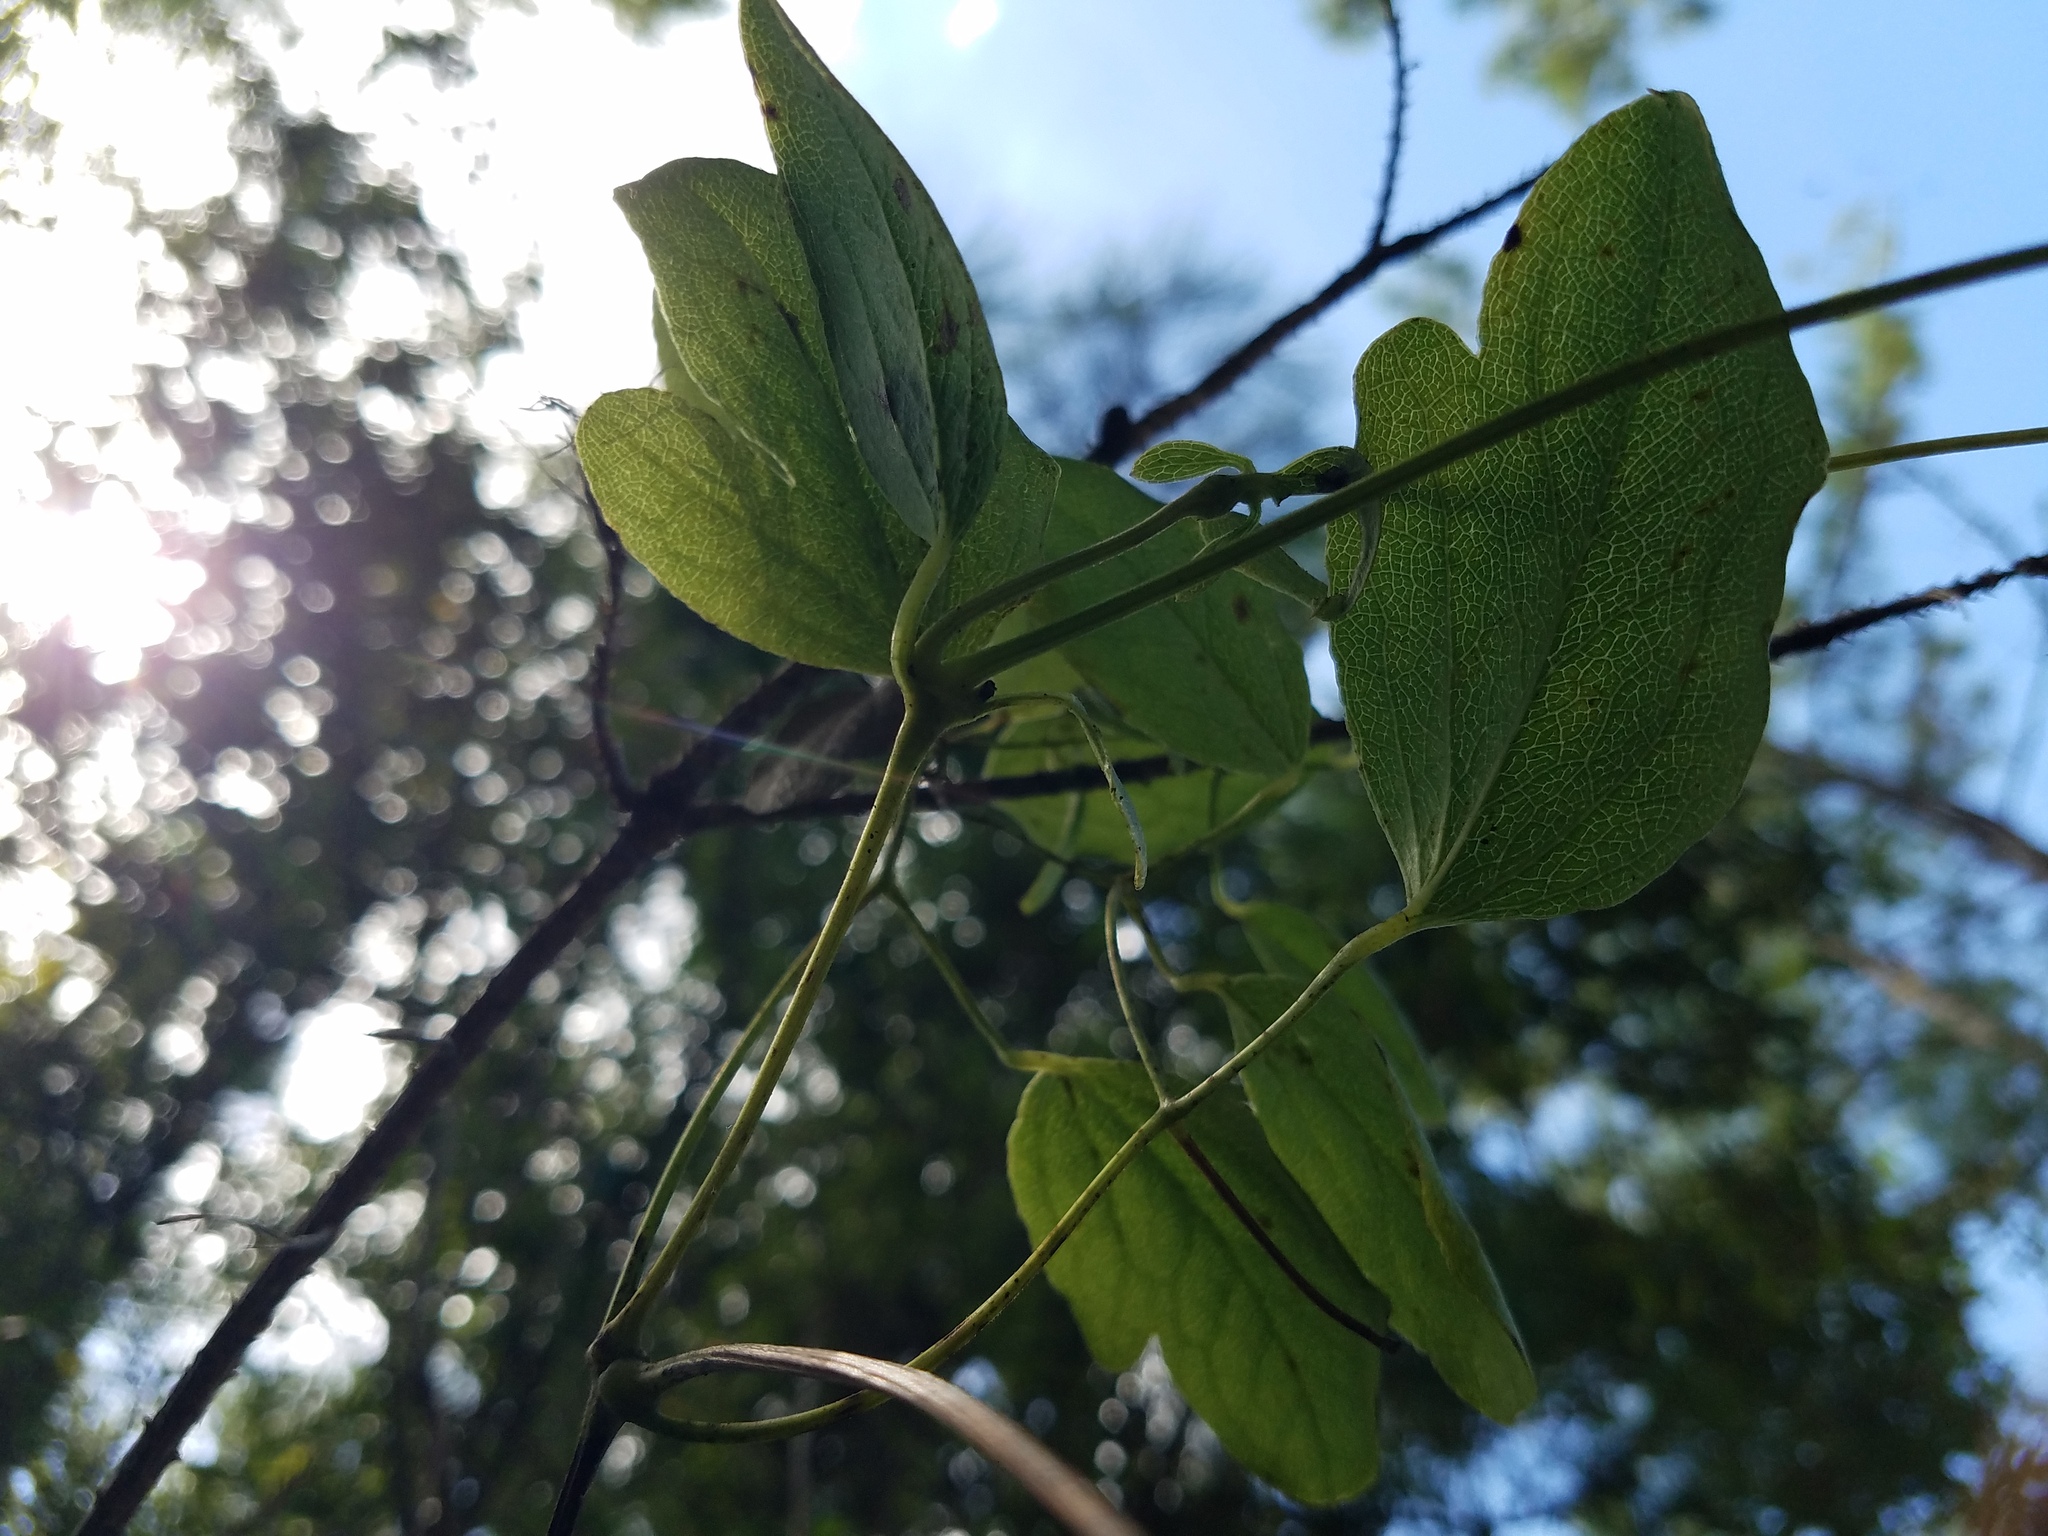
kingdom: Plantae
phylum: Tracheophyta
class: Magnoliopsida
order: Ranunculales
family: Ranunculaceae
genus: Clematis
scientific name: Clematis reticulata
